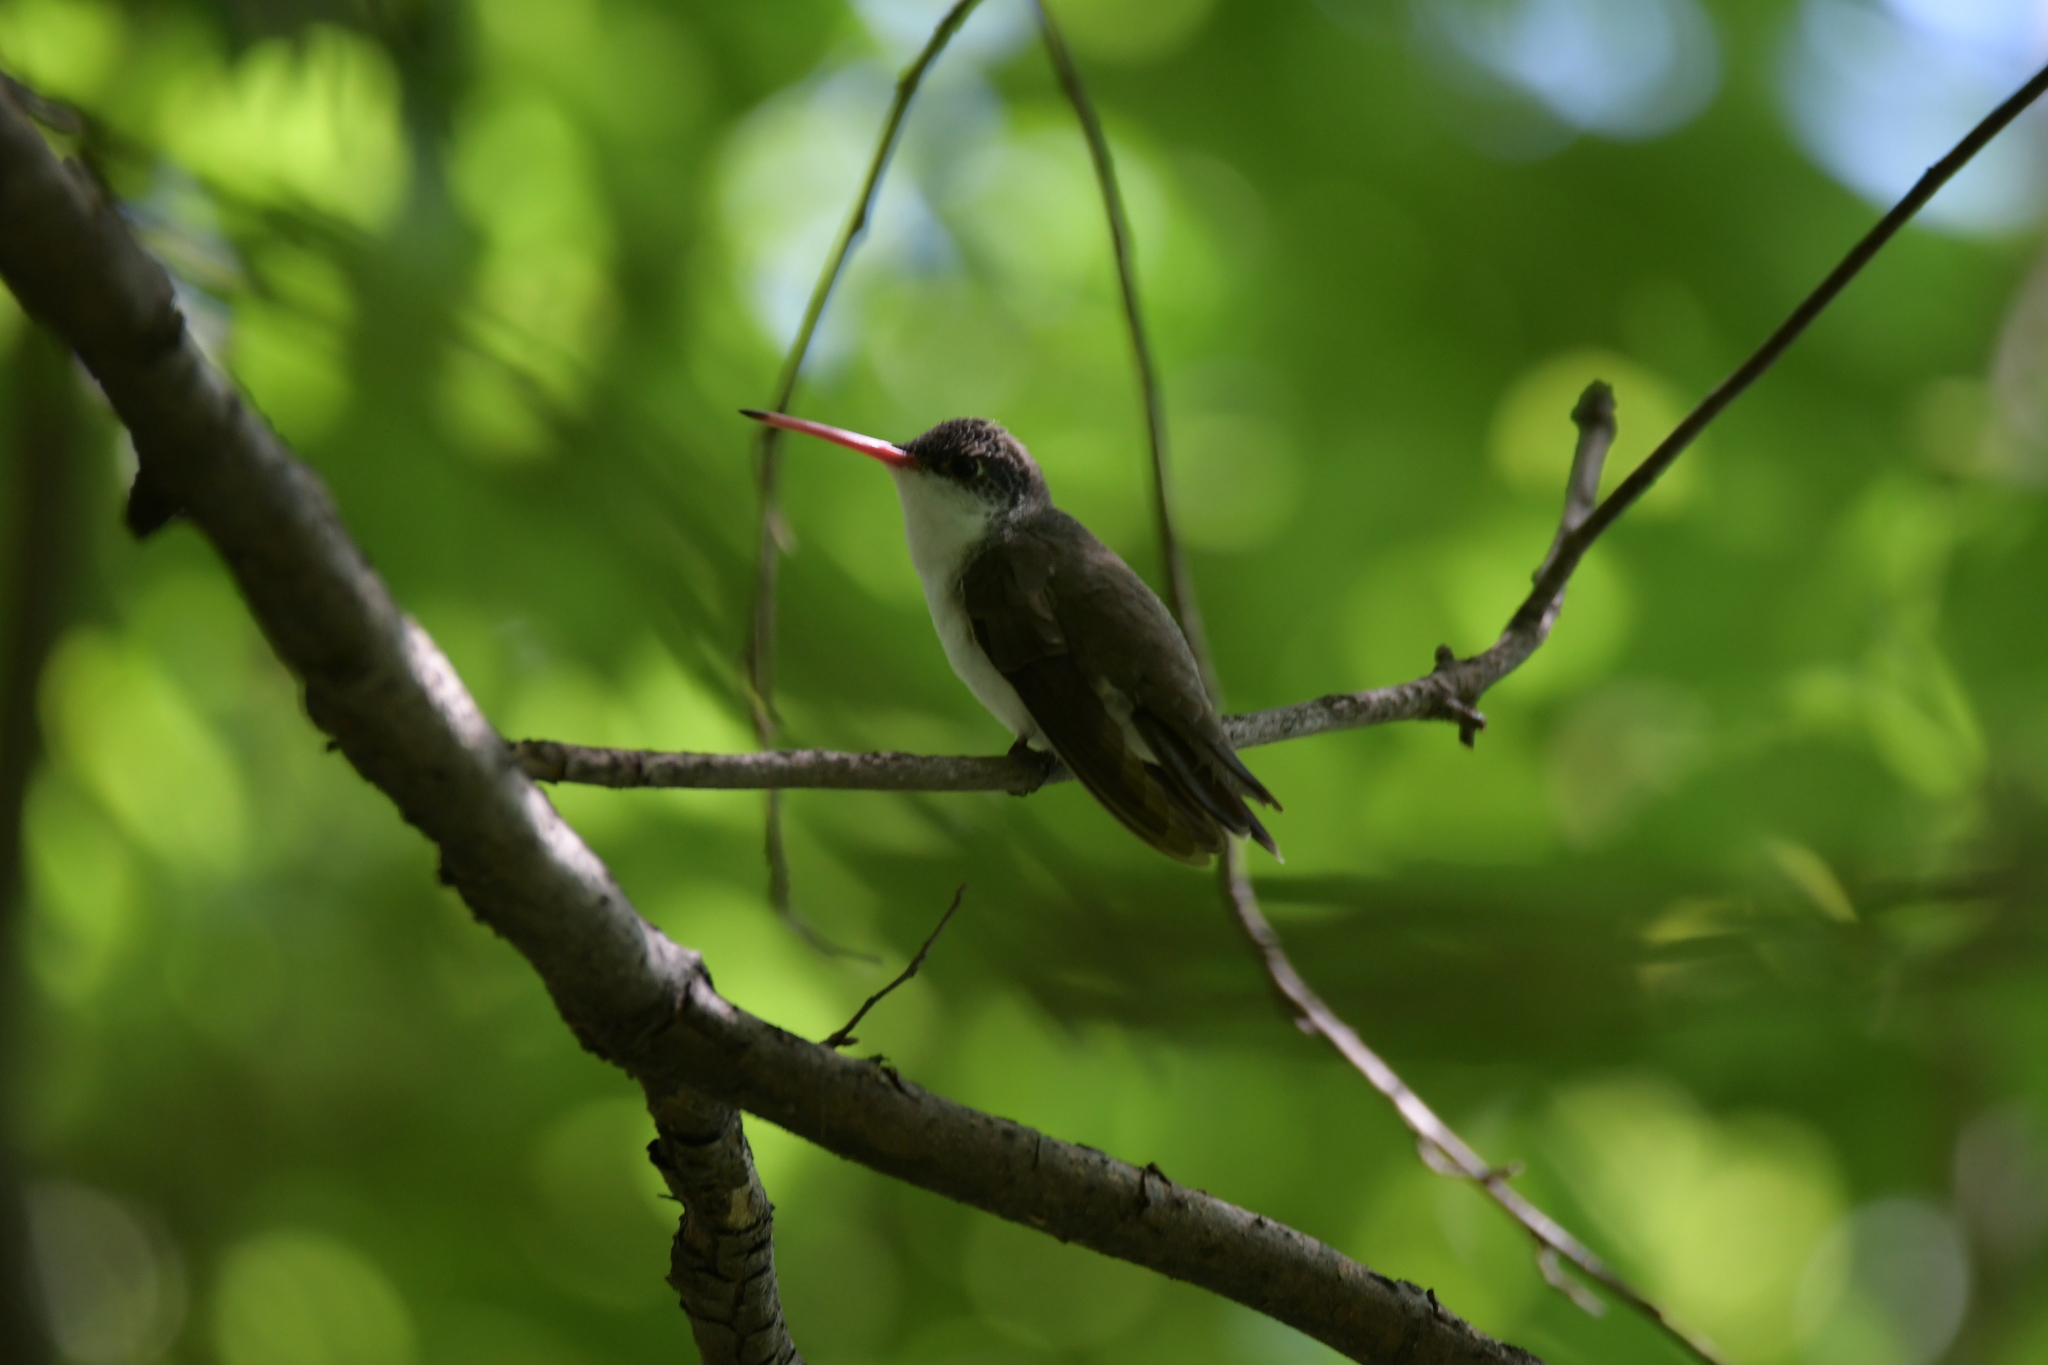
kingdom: Animalia
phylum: Chordata
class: Aves
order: Apodiformes
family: Trochilidae
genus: Leucolia
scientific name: Leucolia violiceps
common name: Violet-crowned hummingbird
